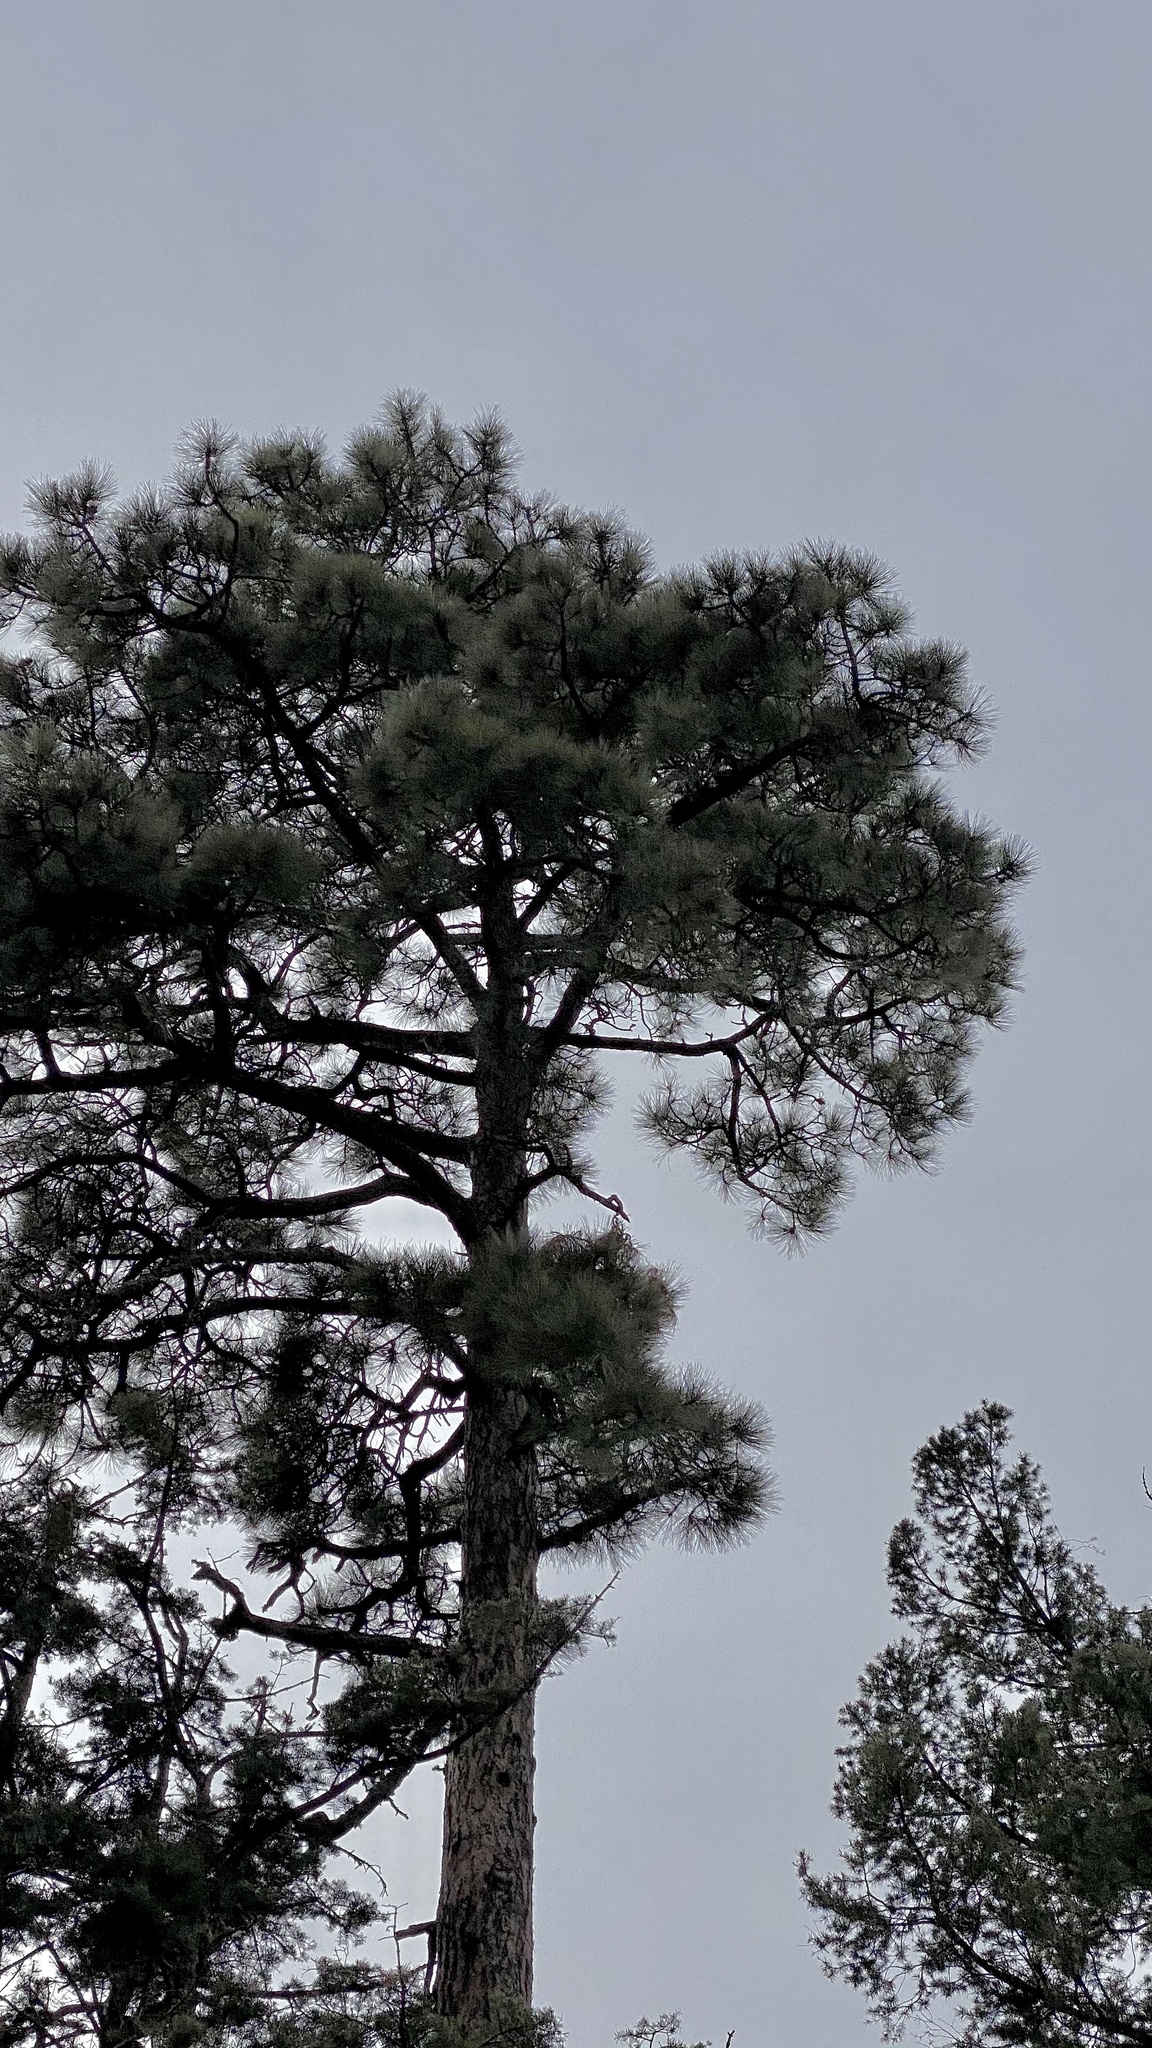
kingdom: Plantae
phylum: Tracheophyta
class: Pinopsida
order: Pinales
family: Pinaceae
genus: Pinus
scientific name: Pinus ponderosa
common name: Western yellow-pine
